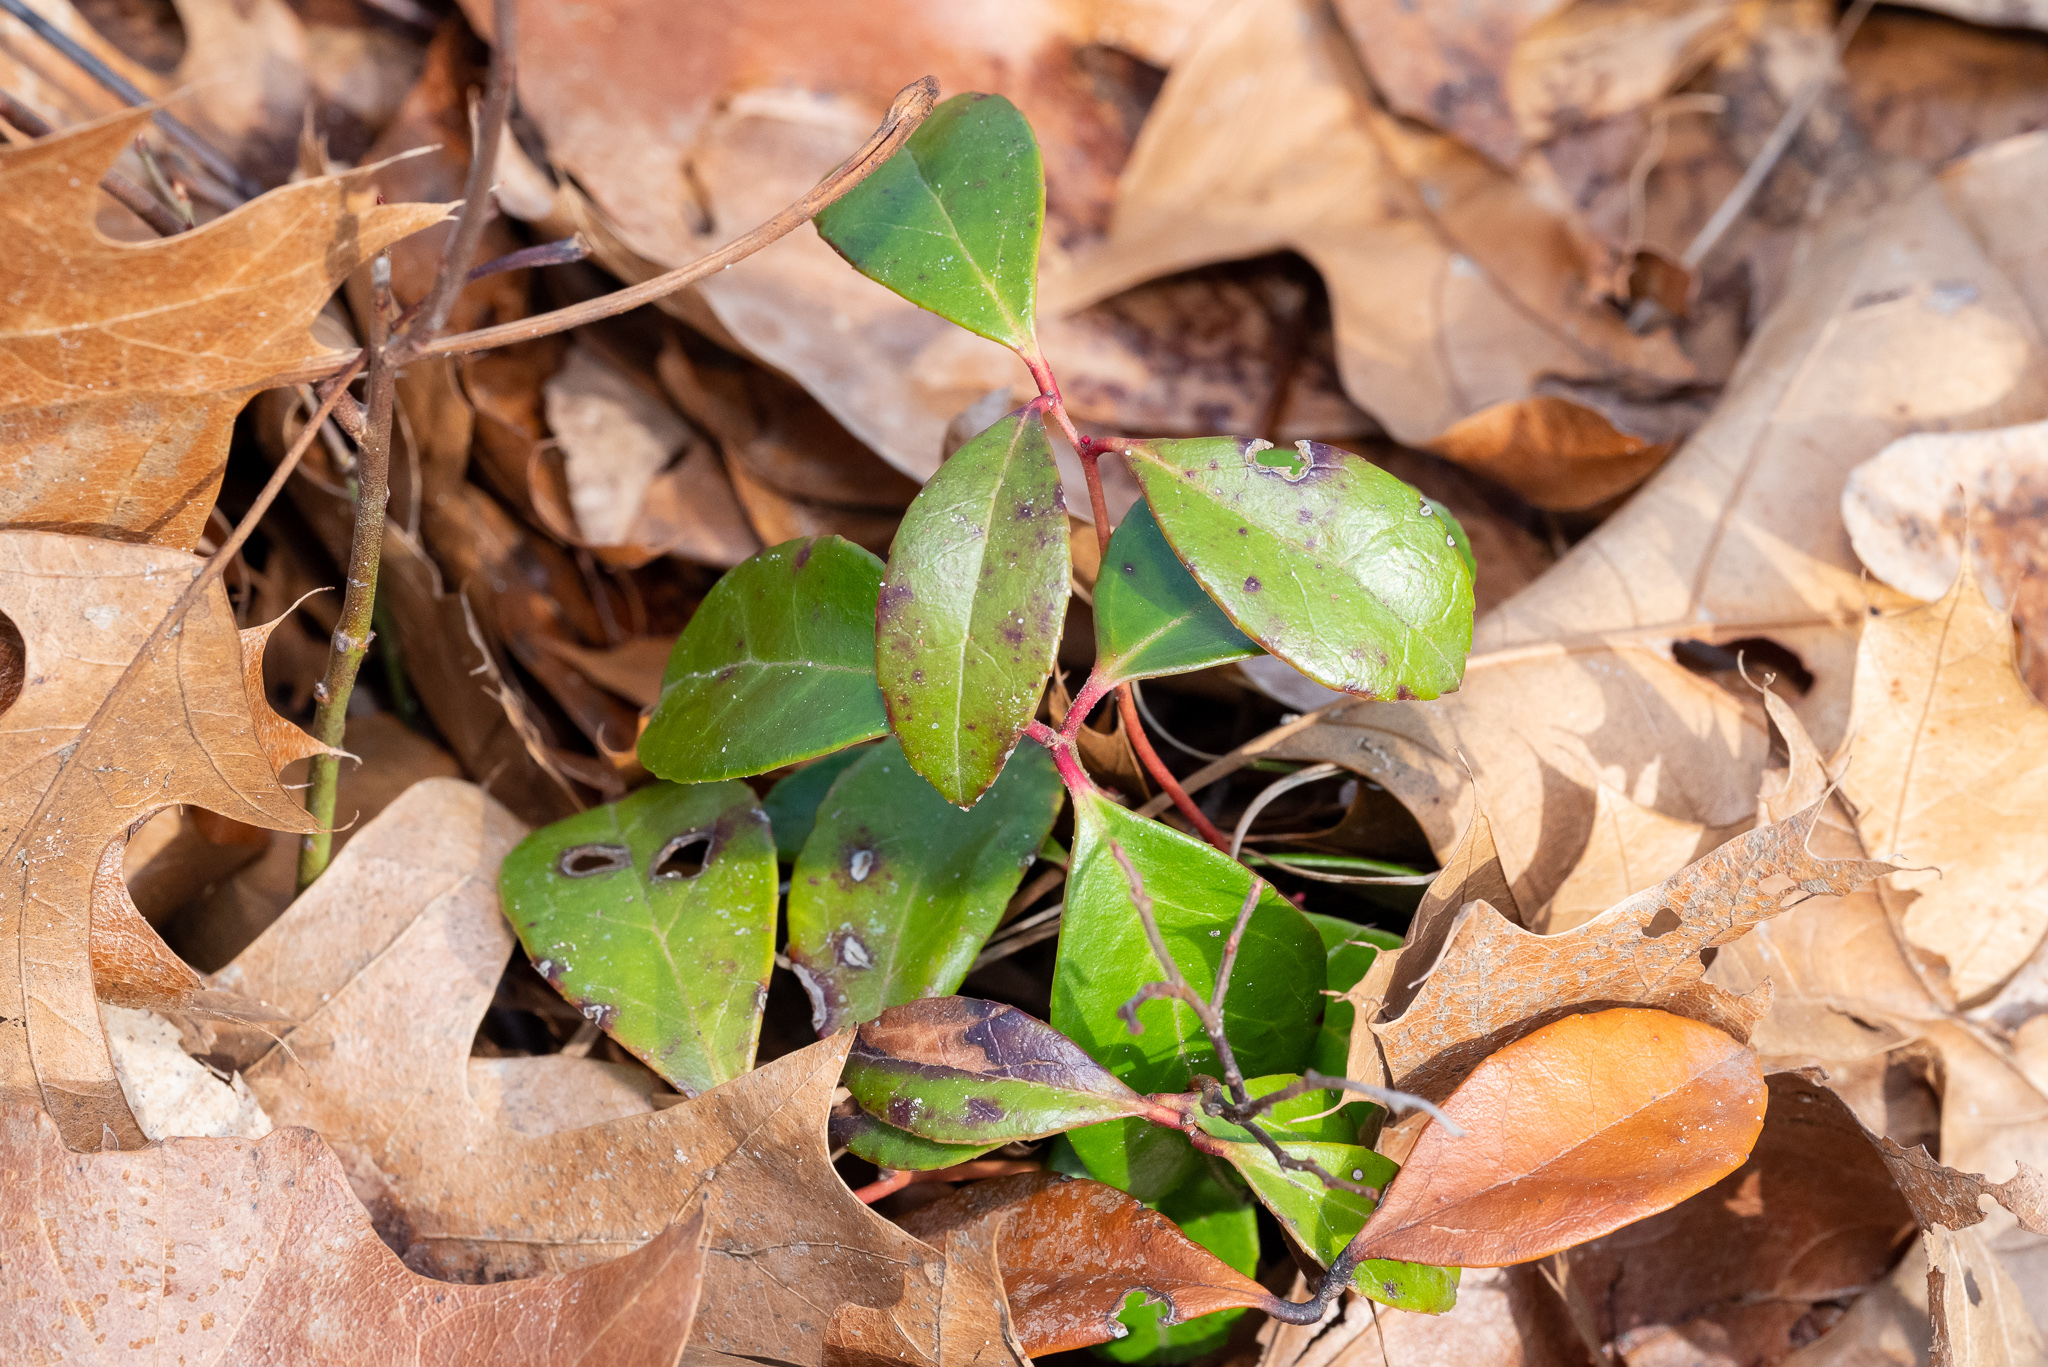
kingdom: Plantae
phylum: Tracheophyta
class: Magnoliopsida
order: Ericales
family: Ericaceae
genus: Gaultheria
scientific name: Gaultheria procumbens
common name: Checkerberry
